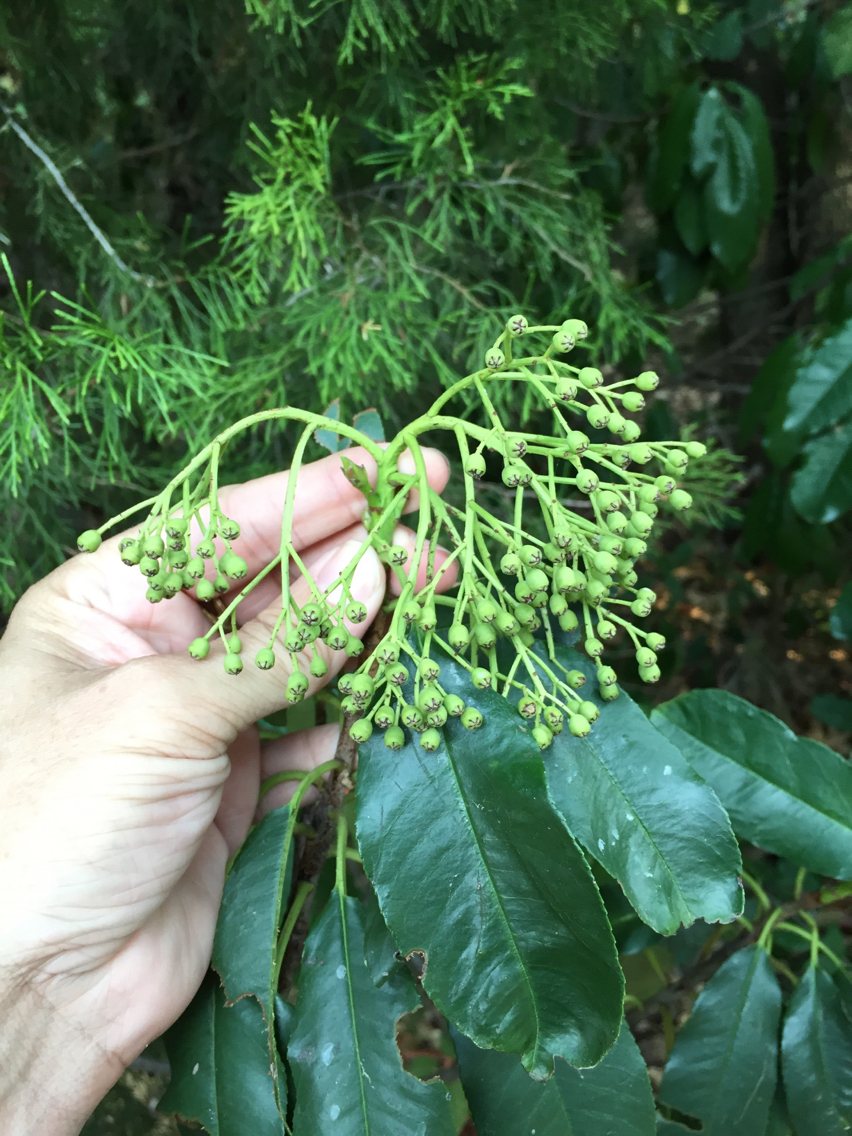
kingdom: Plantae
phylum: Tracheophyta
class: Magnoliopsida
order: Rosales
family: Rosaceae
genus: Photinia
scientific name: Photinia serratifolia
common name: Taiwanese photinia
